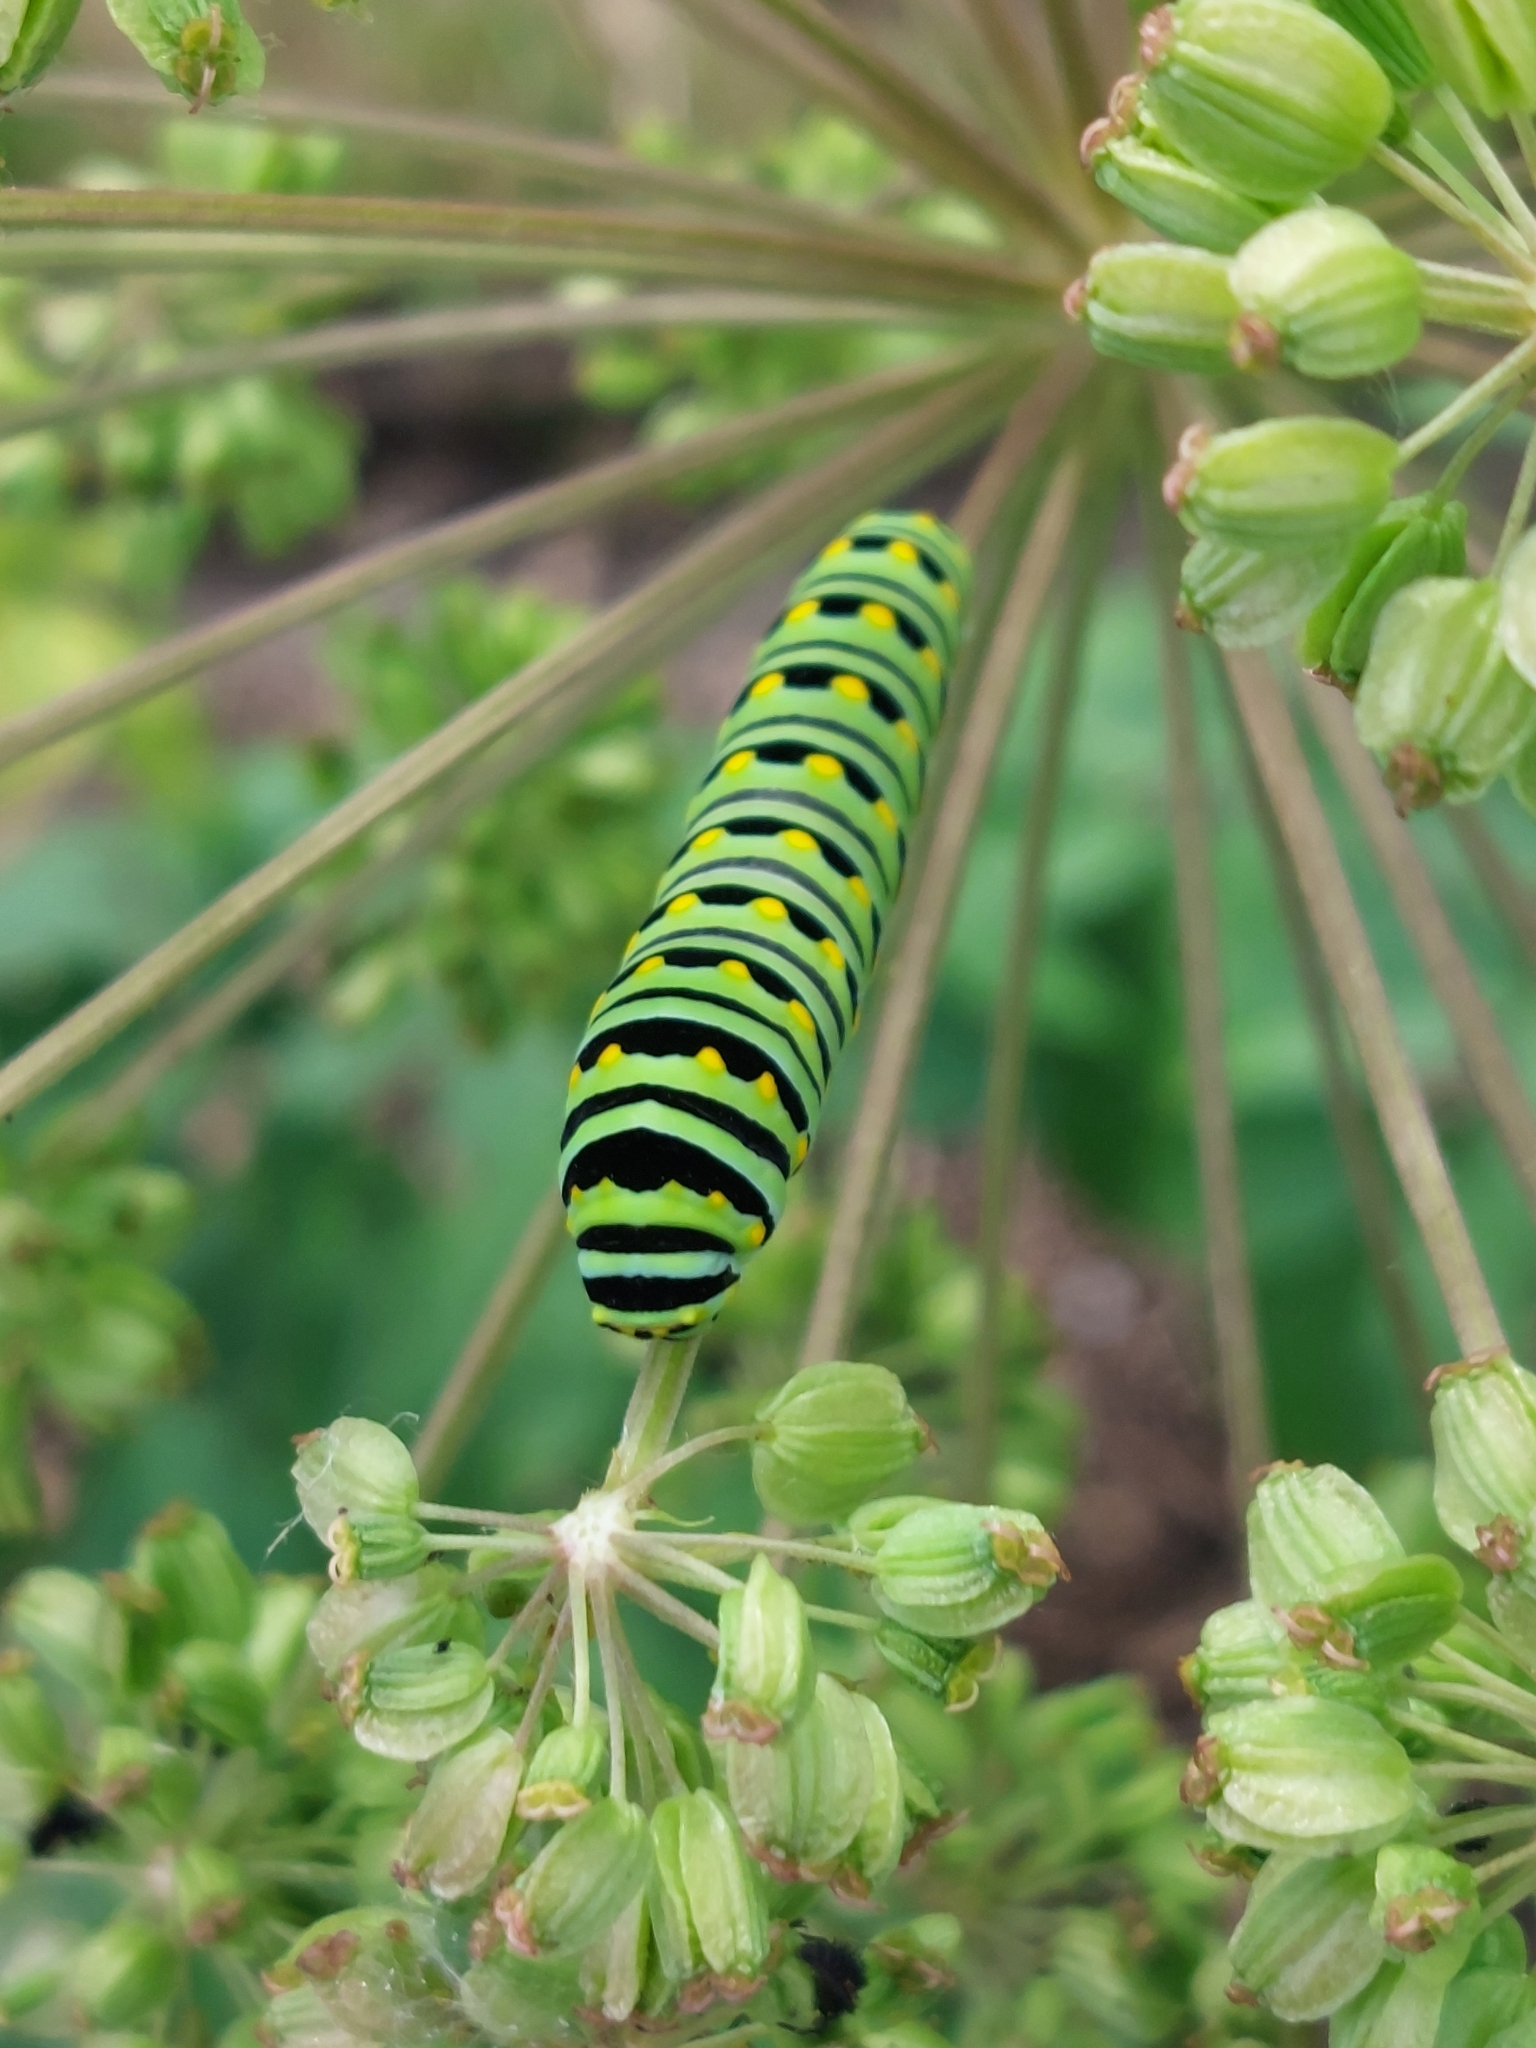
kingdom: Animalia
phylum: Arthropoda
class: Insecta
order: Lepidoptera
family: Papilionidae
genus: Papilio
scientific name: Papilio polyxenes
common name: Black swallowtail
